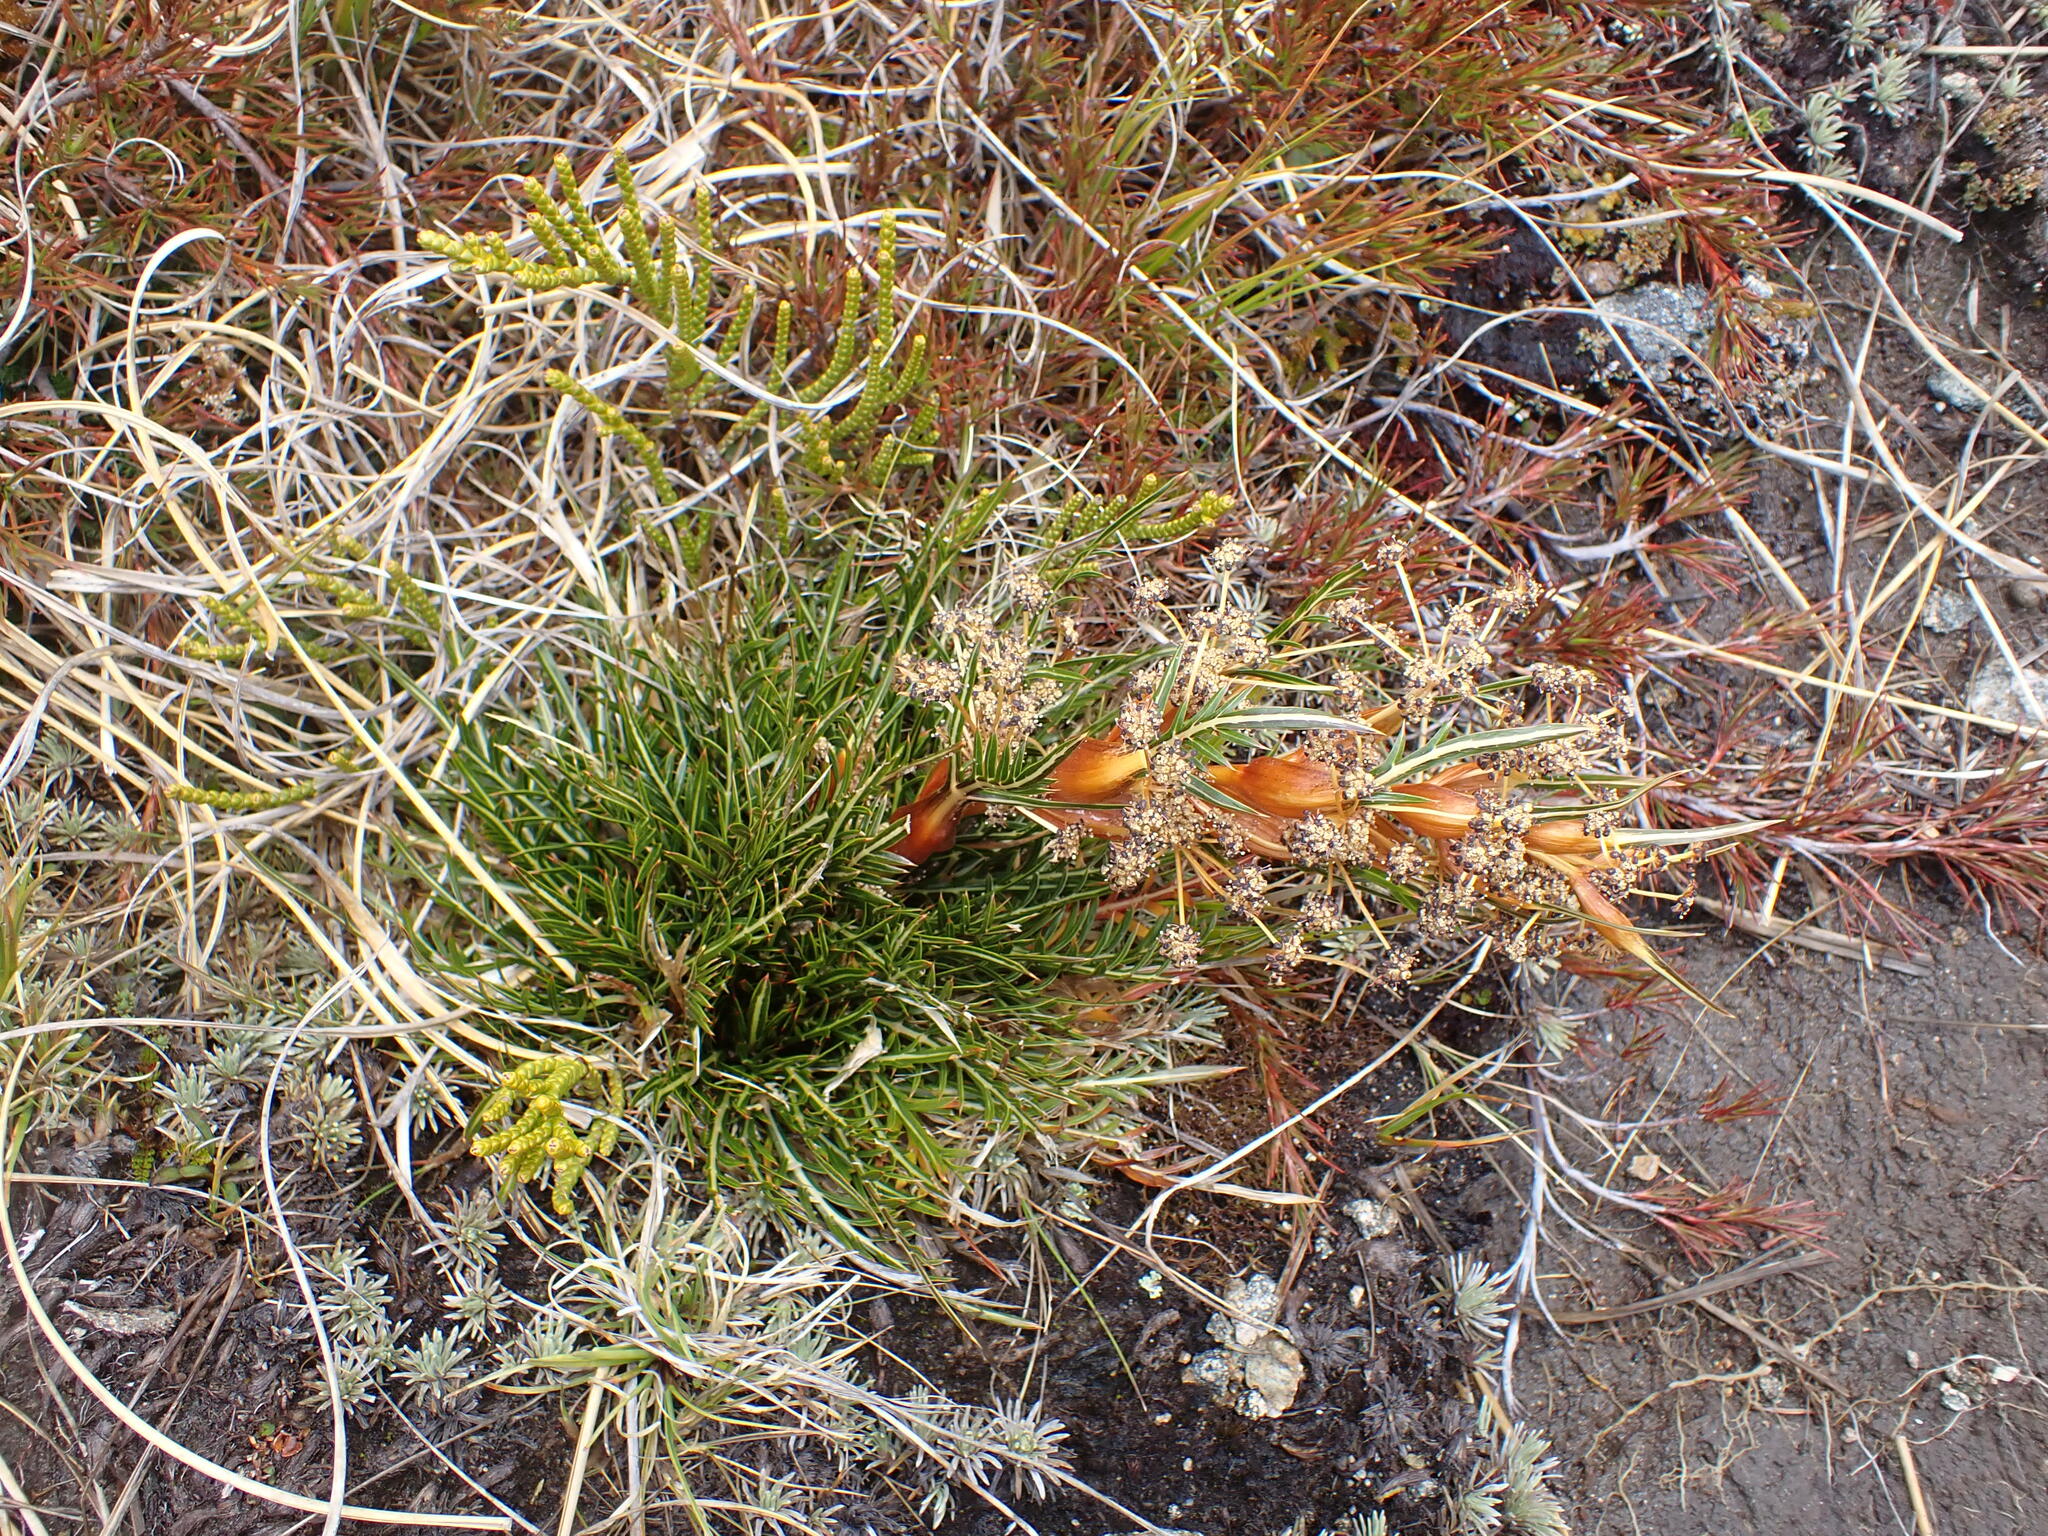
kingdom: Plantae
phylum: Tracheophyta
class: Magnoliopsida
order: Apiales
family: Apiaceae
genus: Aciphylla
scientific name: Aciphylla pinnatifida
